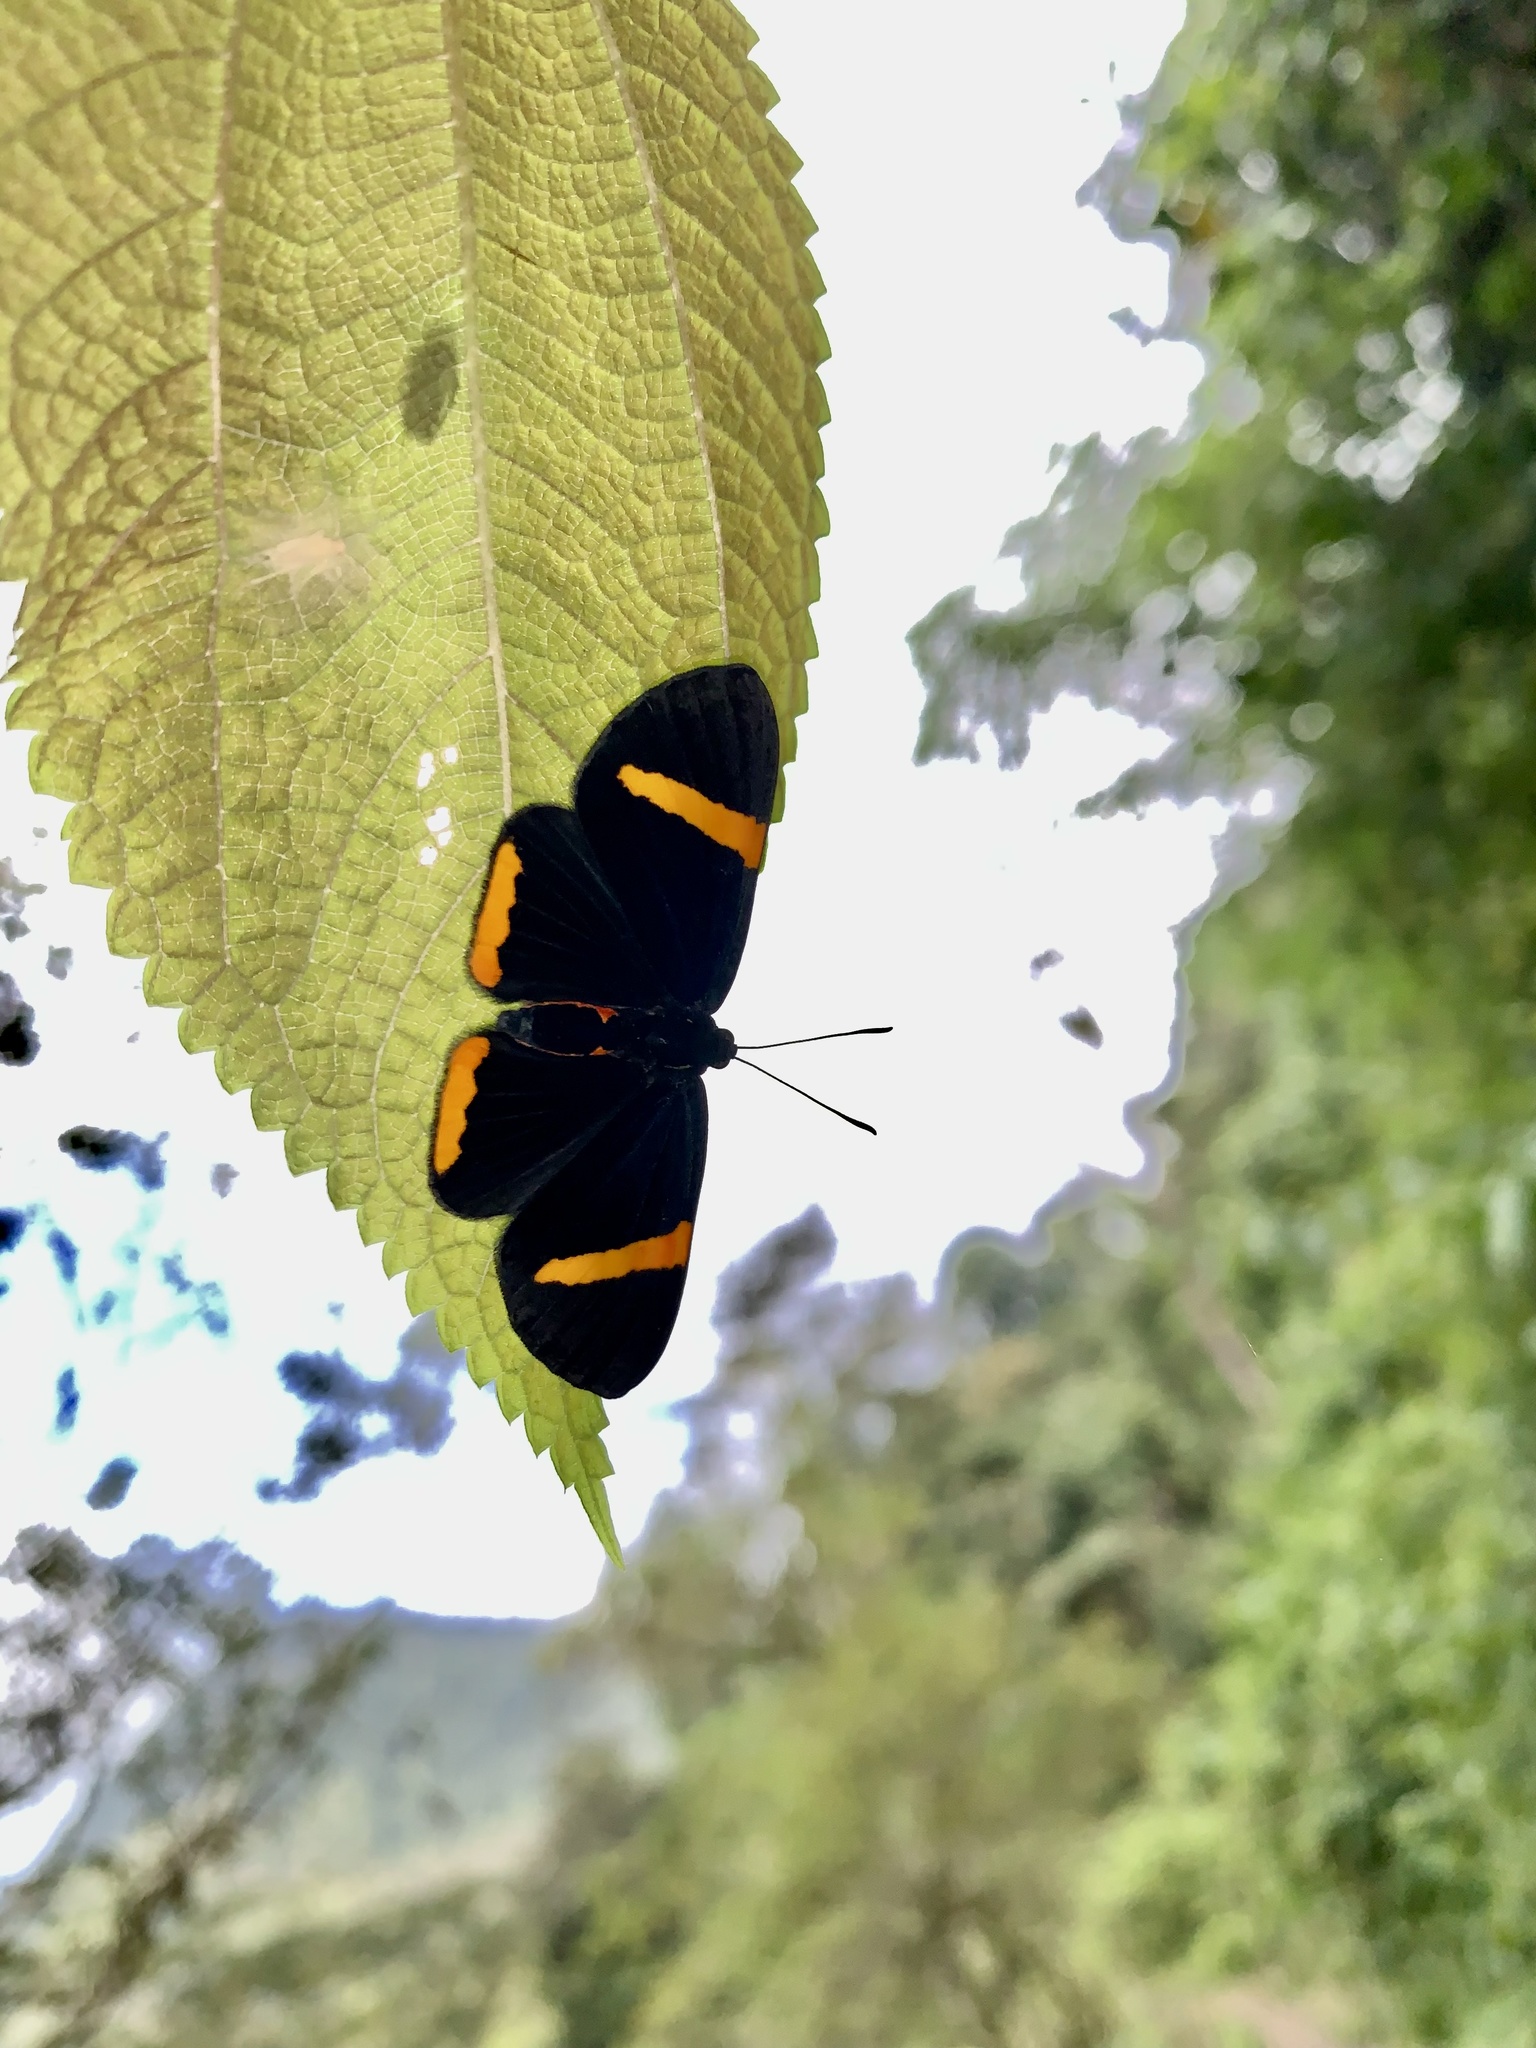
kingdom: Animalia
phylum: Arthropoda
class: Insecta
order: Lepidoptera
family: Lycaenidae
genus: Melanis
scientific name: Melanis
